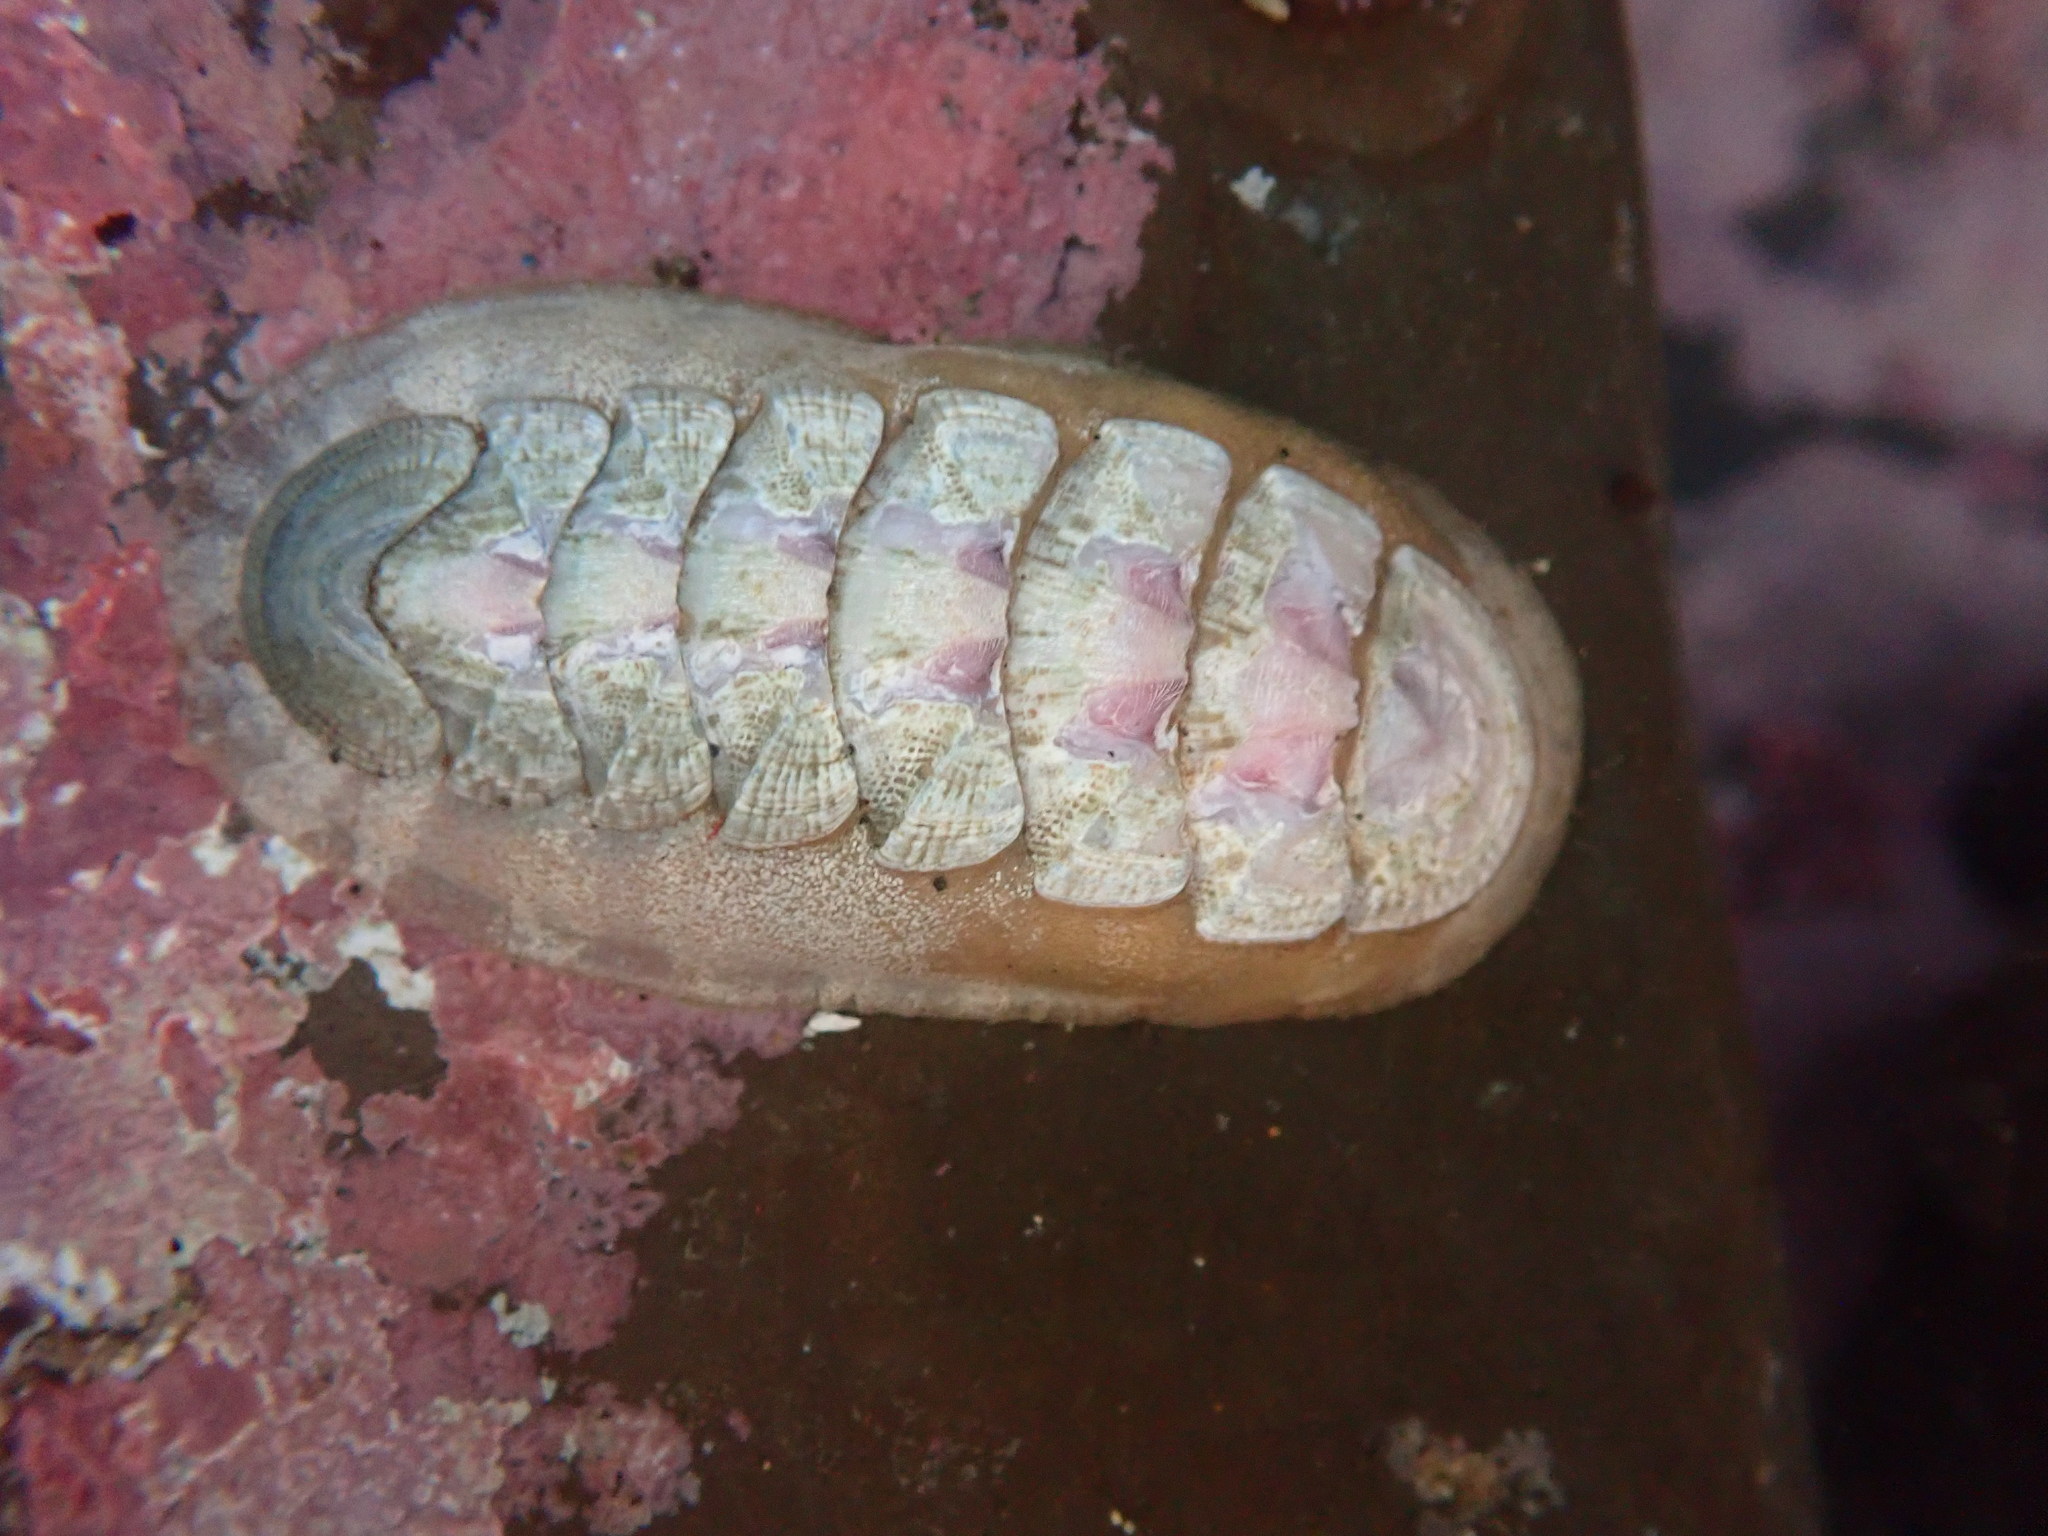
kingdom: Animalia
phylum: Mollusca
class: Polyplacophora
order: Chitonida
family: Ischnochitonidae
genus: Stenoplax
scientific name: Stenoplax heathiana
